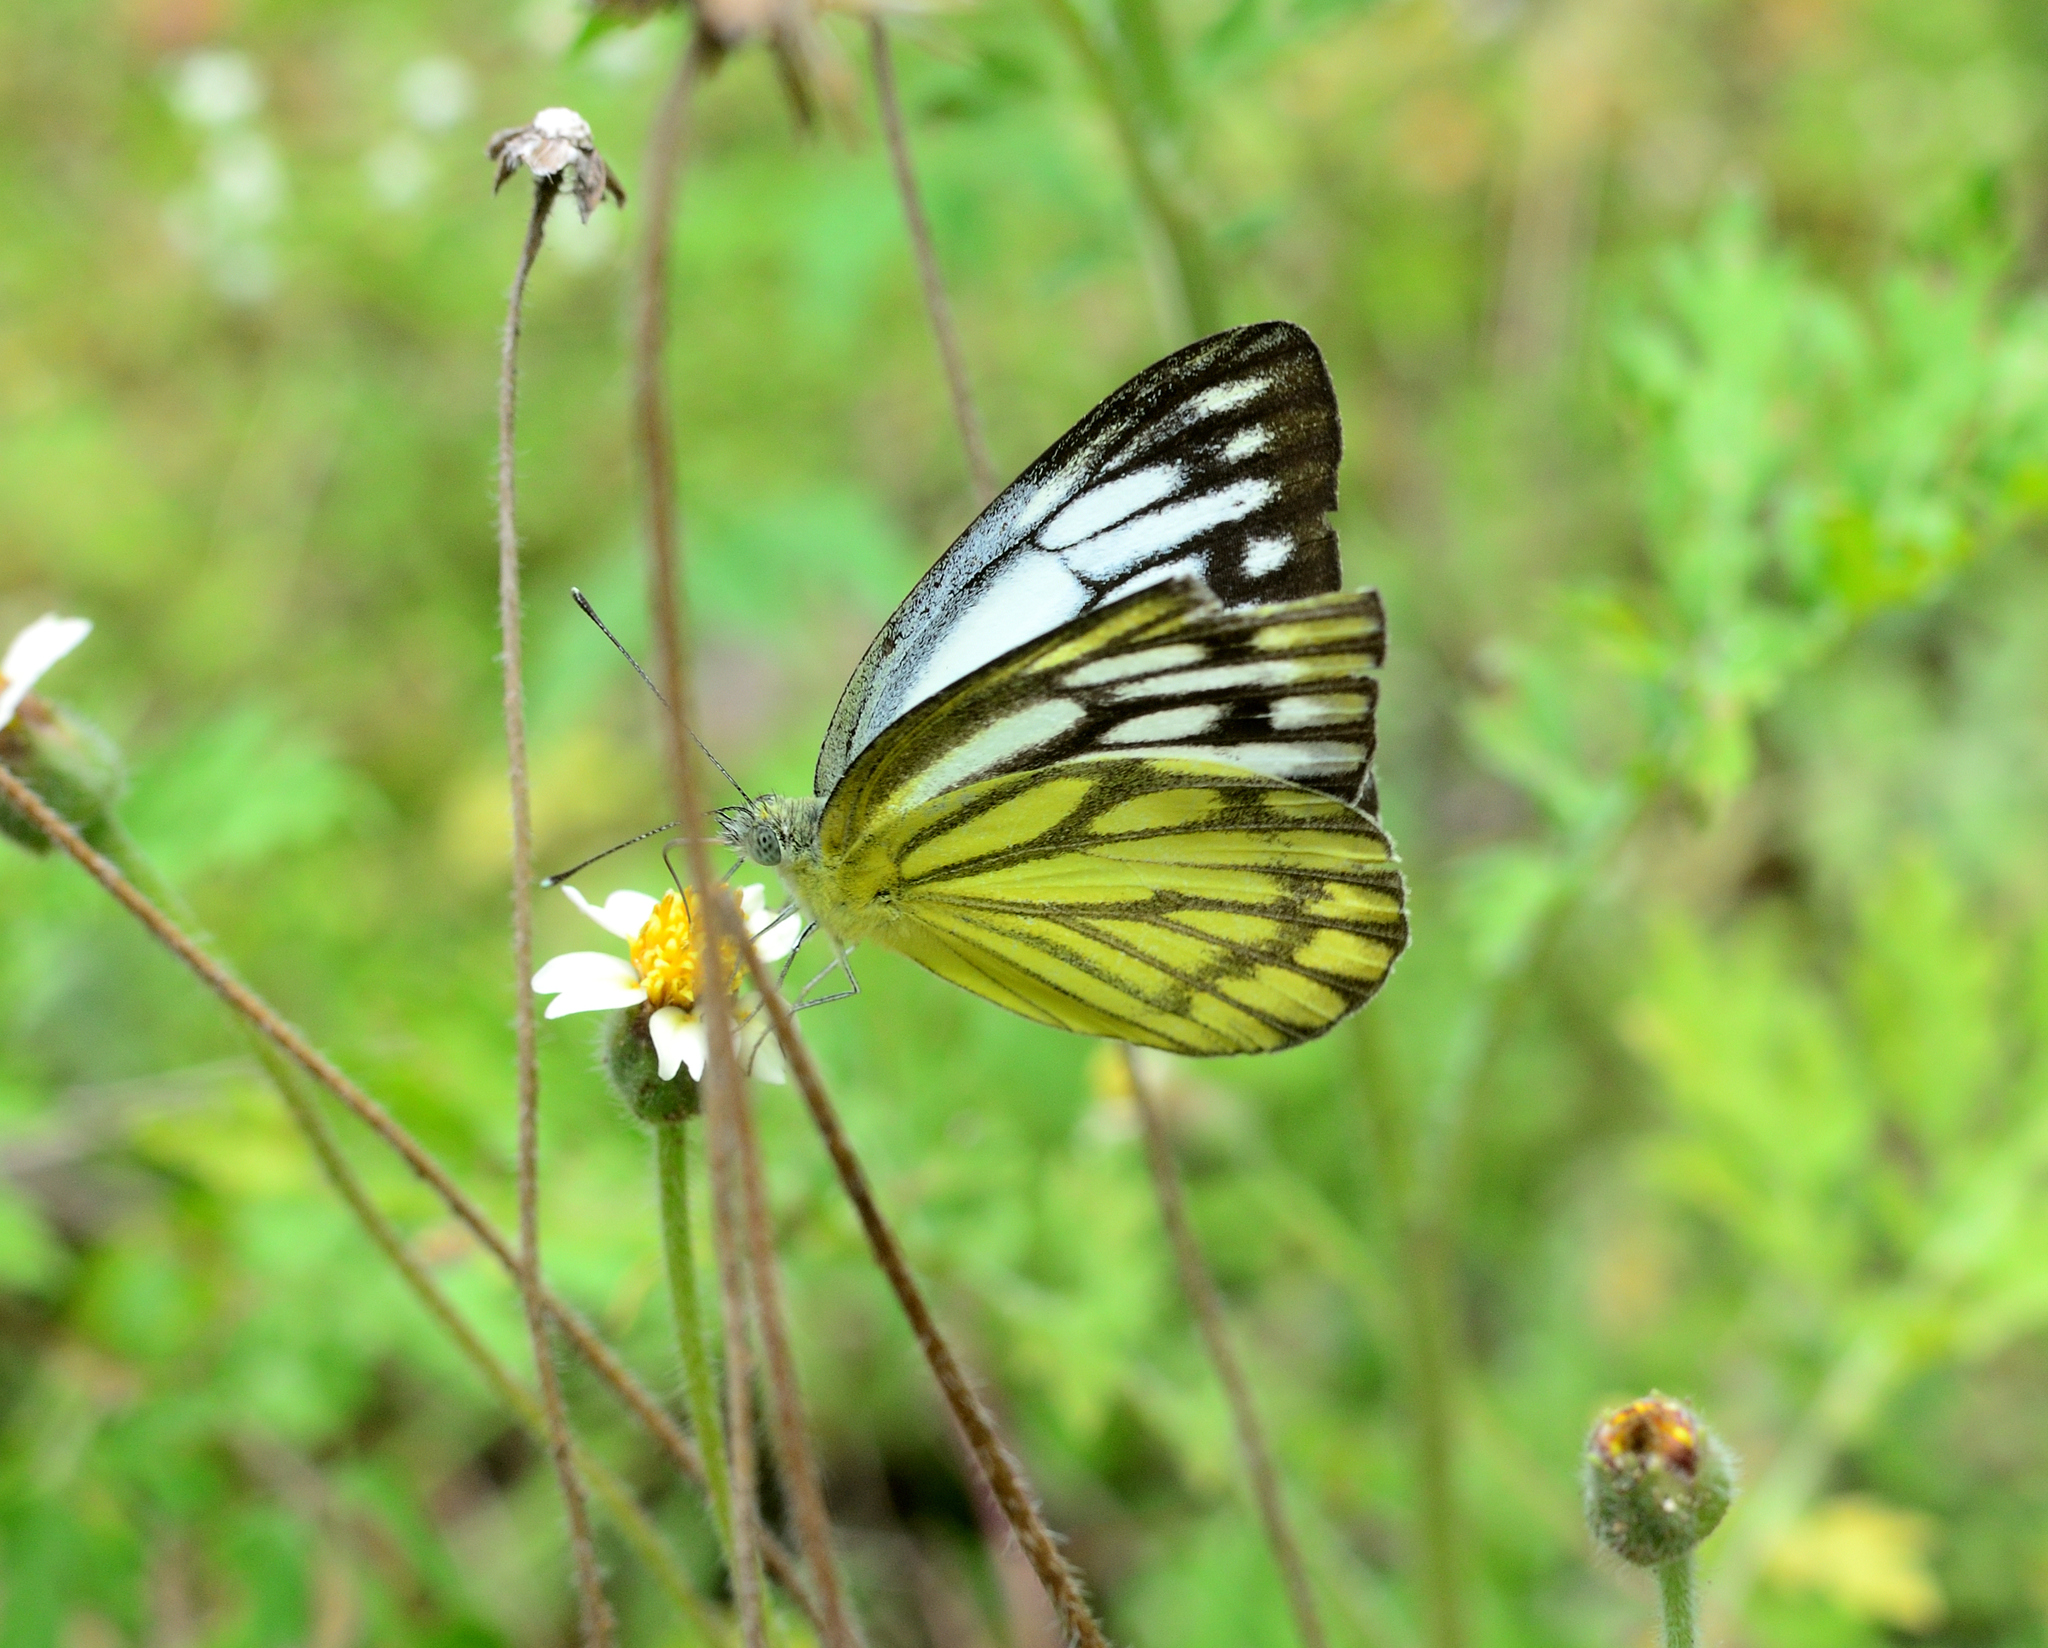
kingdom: Animalia
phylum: Arthropoda
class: Insecta
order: Lepidoptera
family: Pieridae
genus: Cepora
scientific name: Cepora nerissa
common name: Common gull
